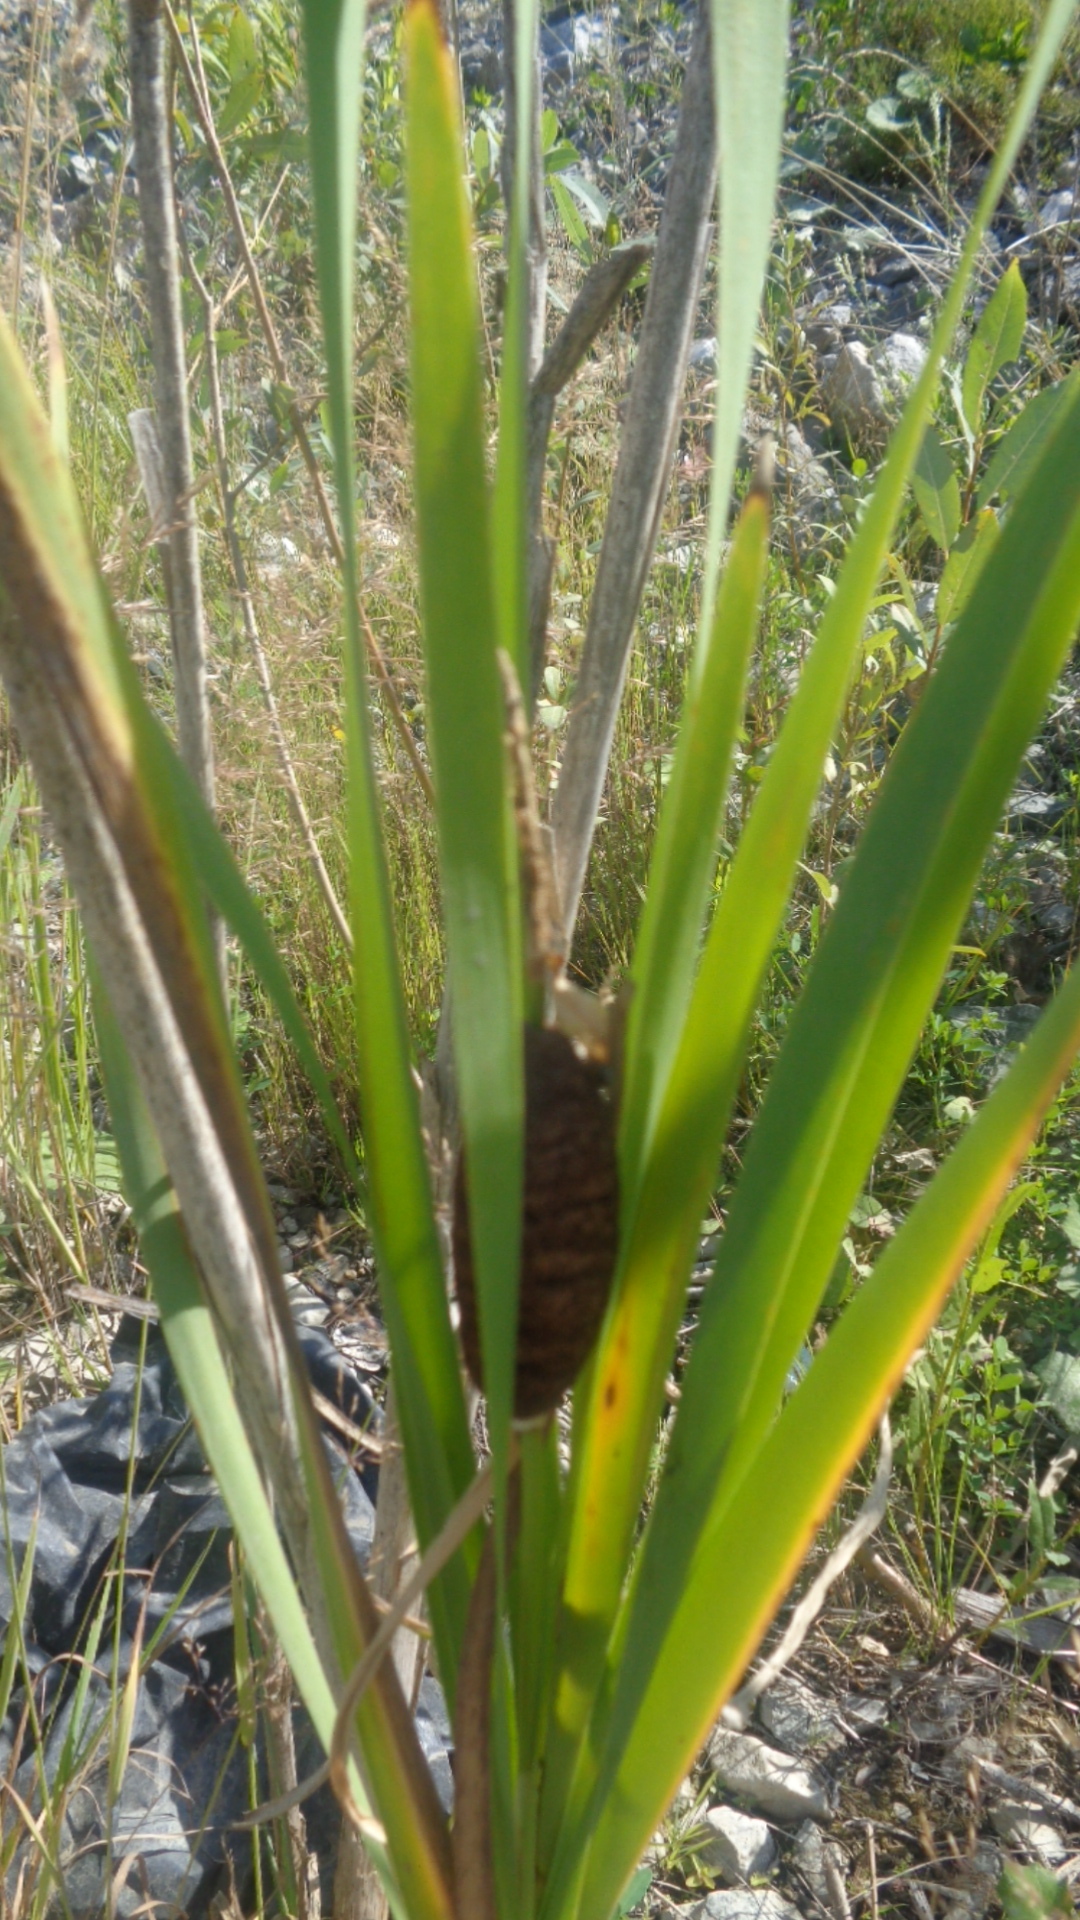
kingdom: Plantae
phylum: Tracheophyta
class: Liliopsida
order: Poales
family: Typhaceae
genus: Typha
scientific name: Typha latifolia
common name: Broadleaf cattail
